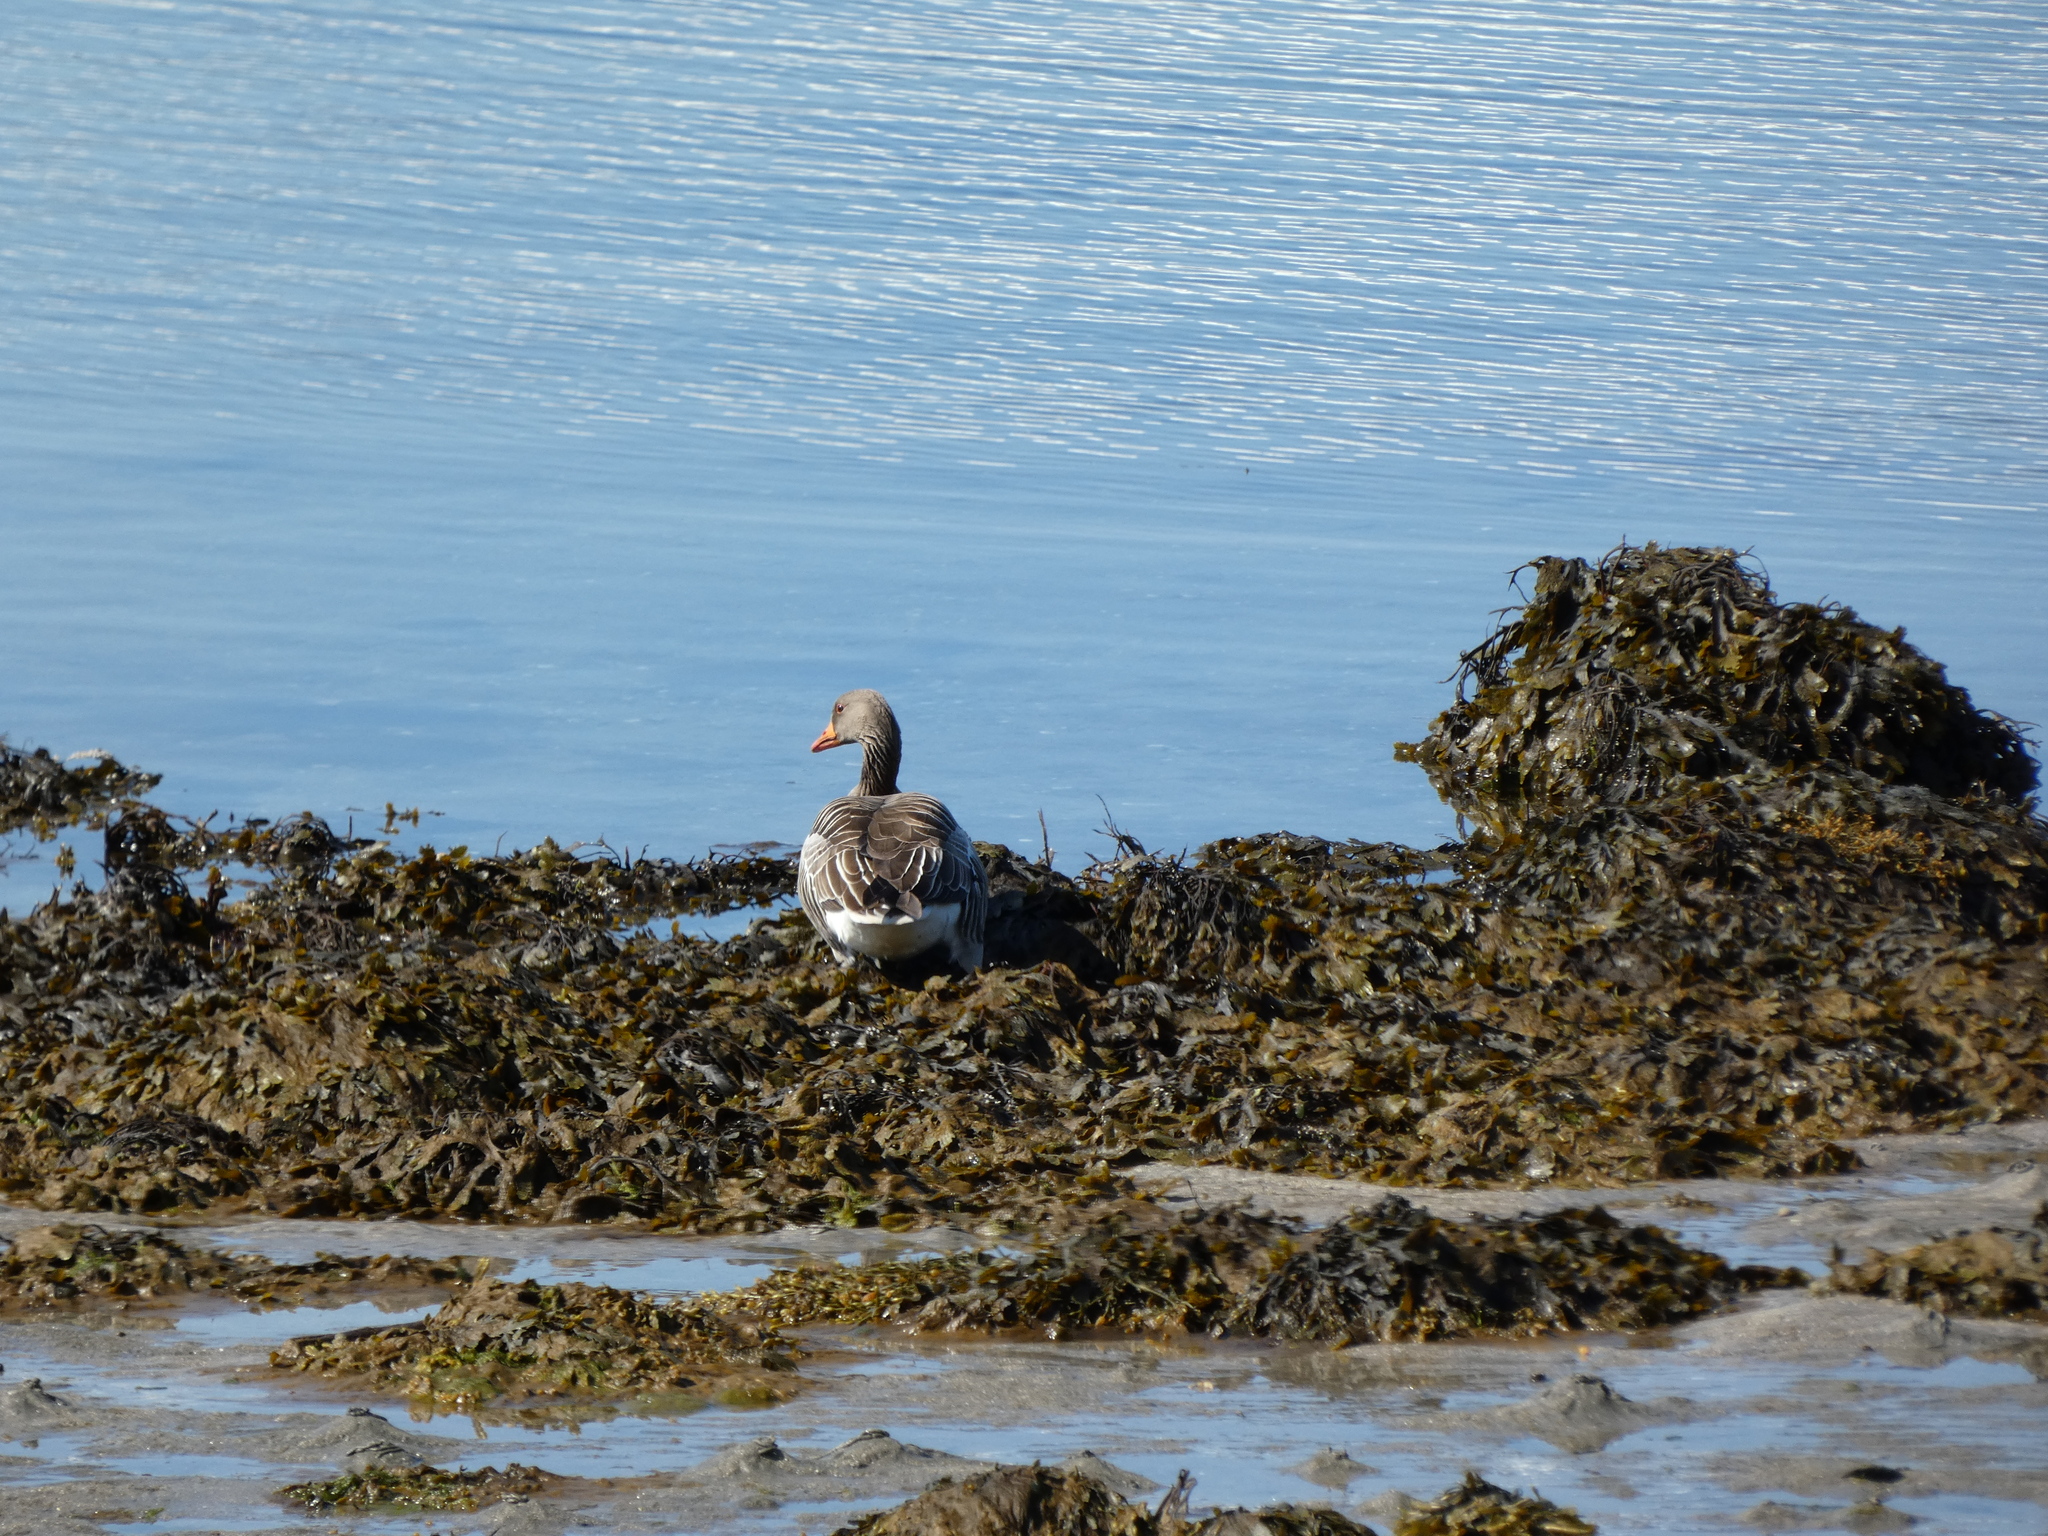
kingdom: Animalia
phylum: Chordata
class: Aves
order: Anseriformes
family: Anatidae
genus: Anser
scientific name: Anser anser
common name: Greylag goose
